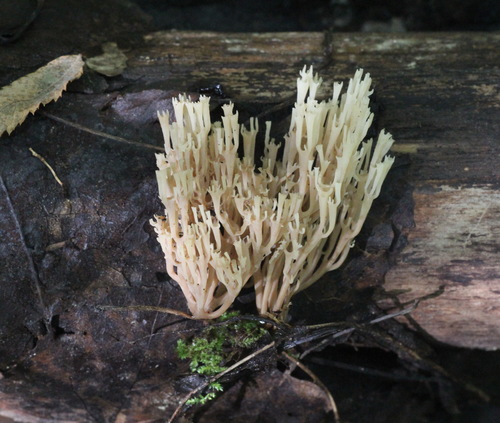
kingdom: Fungi
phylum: Basidiomycota
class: Agaricomycetes
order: Russulales
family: Auriscalpiaceae
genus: Artomyces
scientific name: Artomyces pyxidatus
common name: Crown-tipped coral fungus
